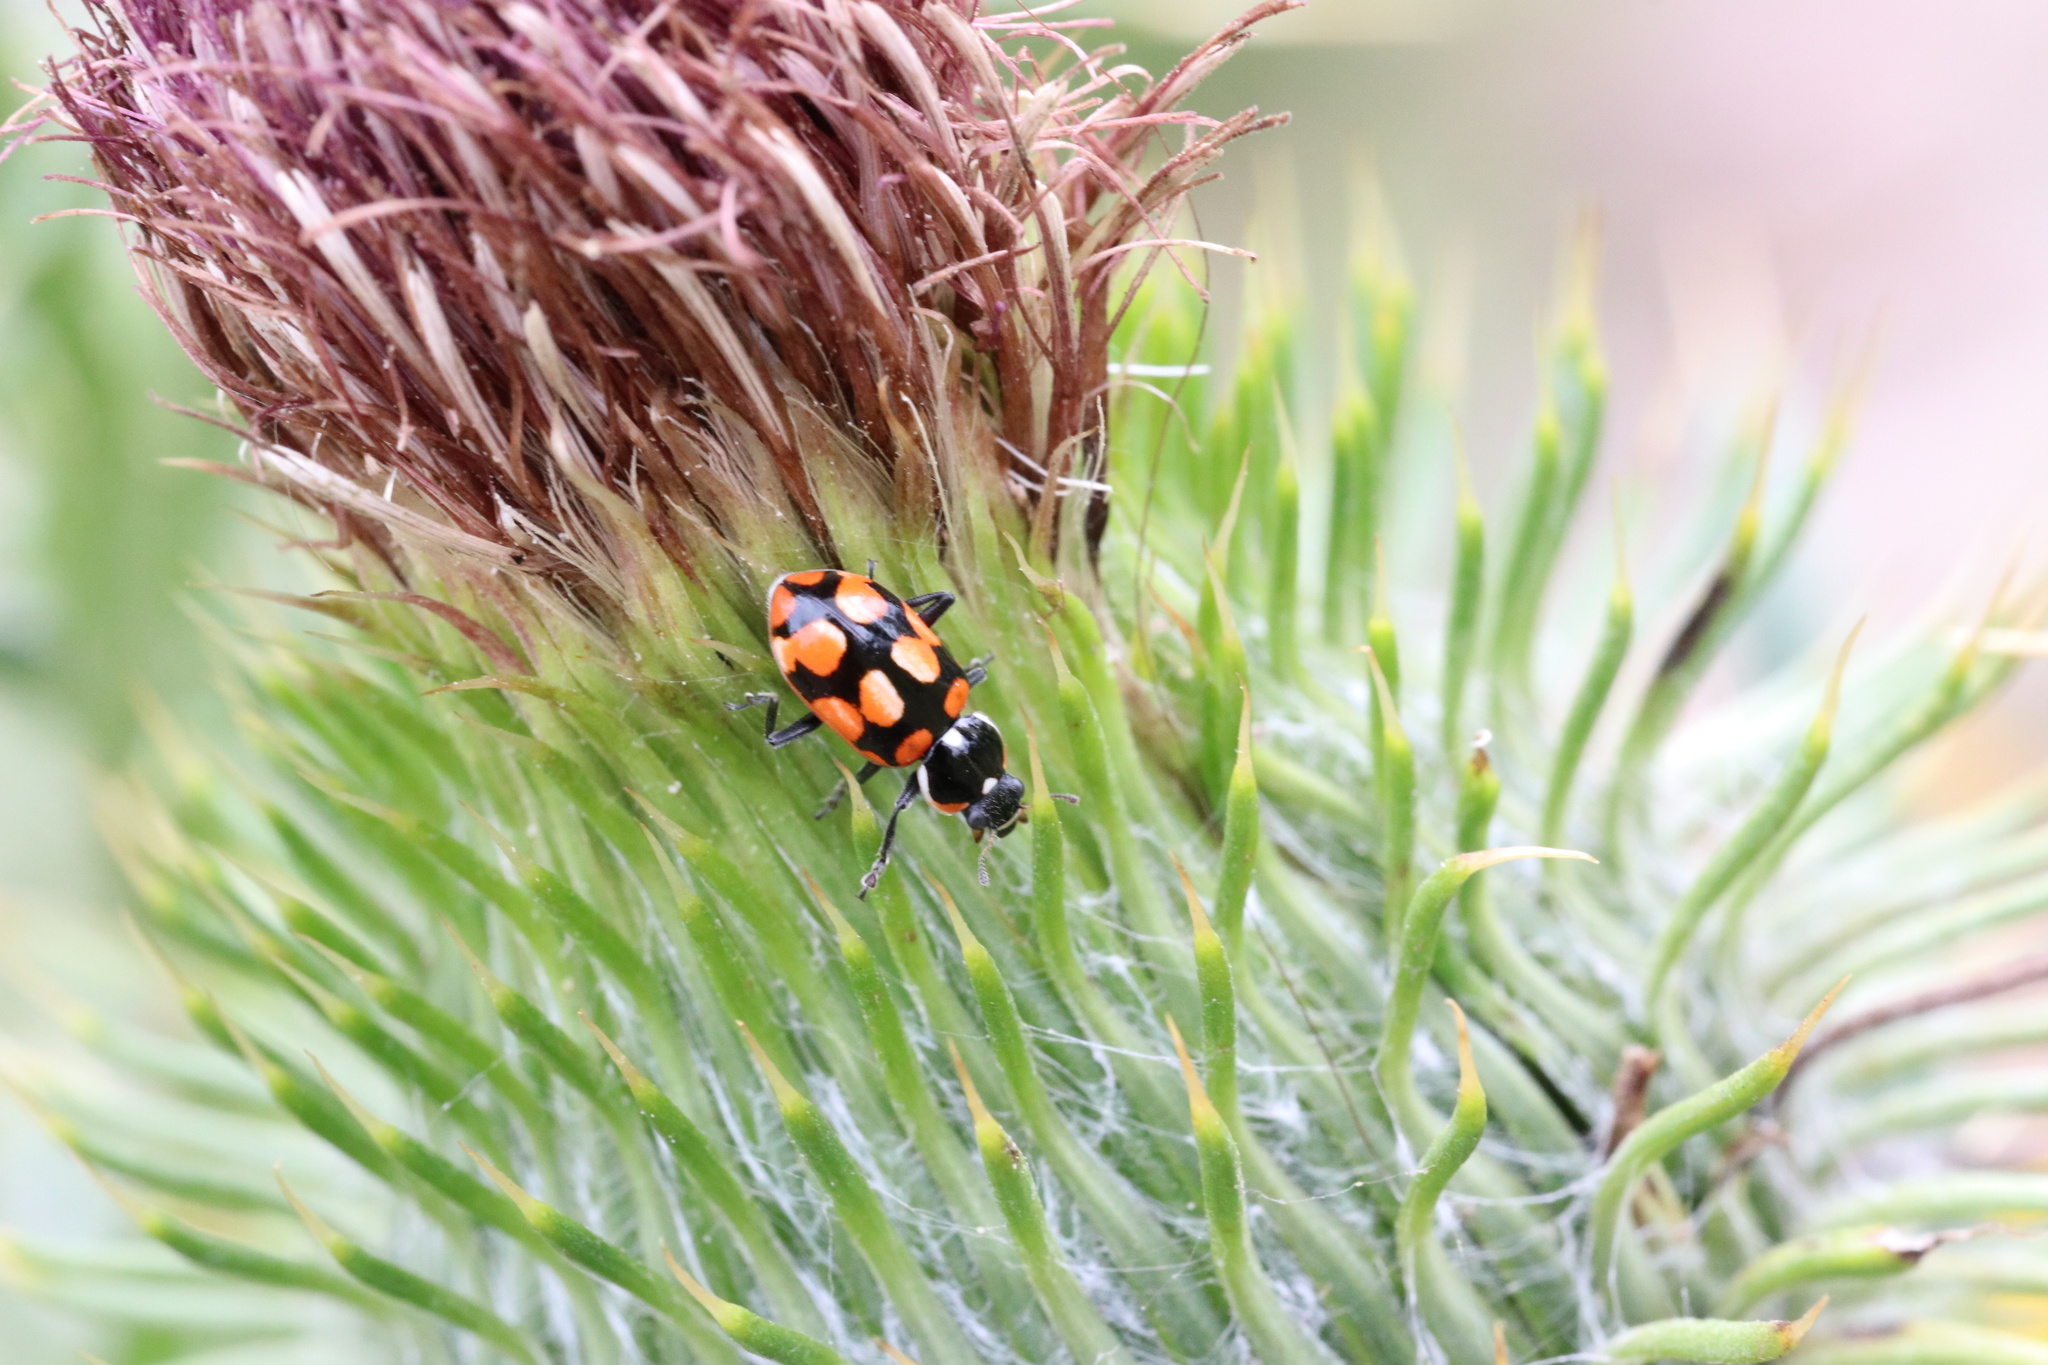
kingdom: Animalia
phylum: Arthropoda
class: Insecta
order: Coleoptera
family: Coccinellidae
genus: Eriopis
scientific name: Eriopis chilensis
